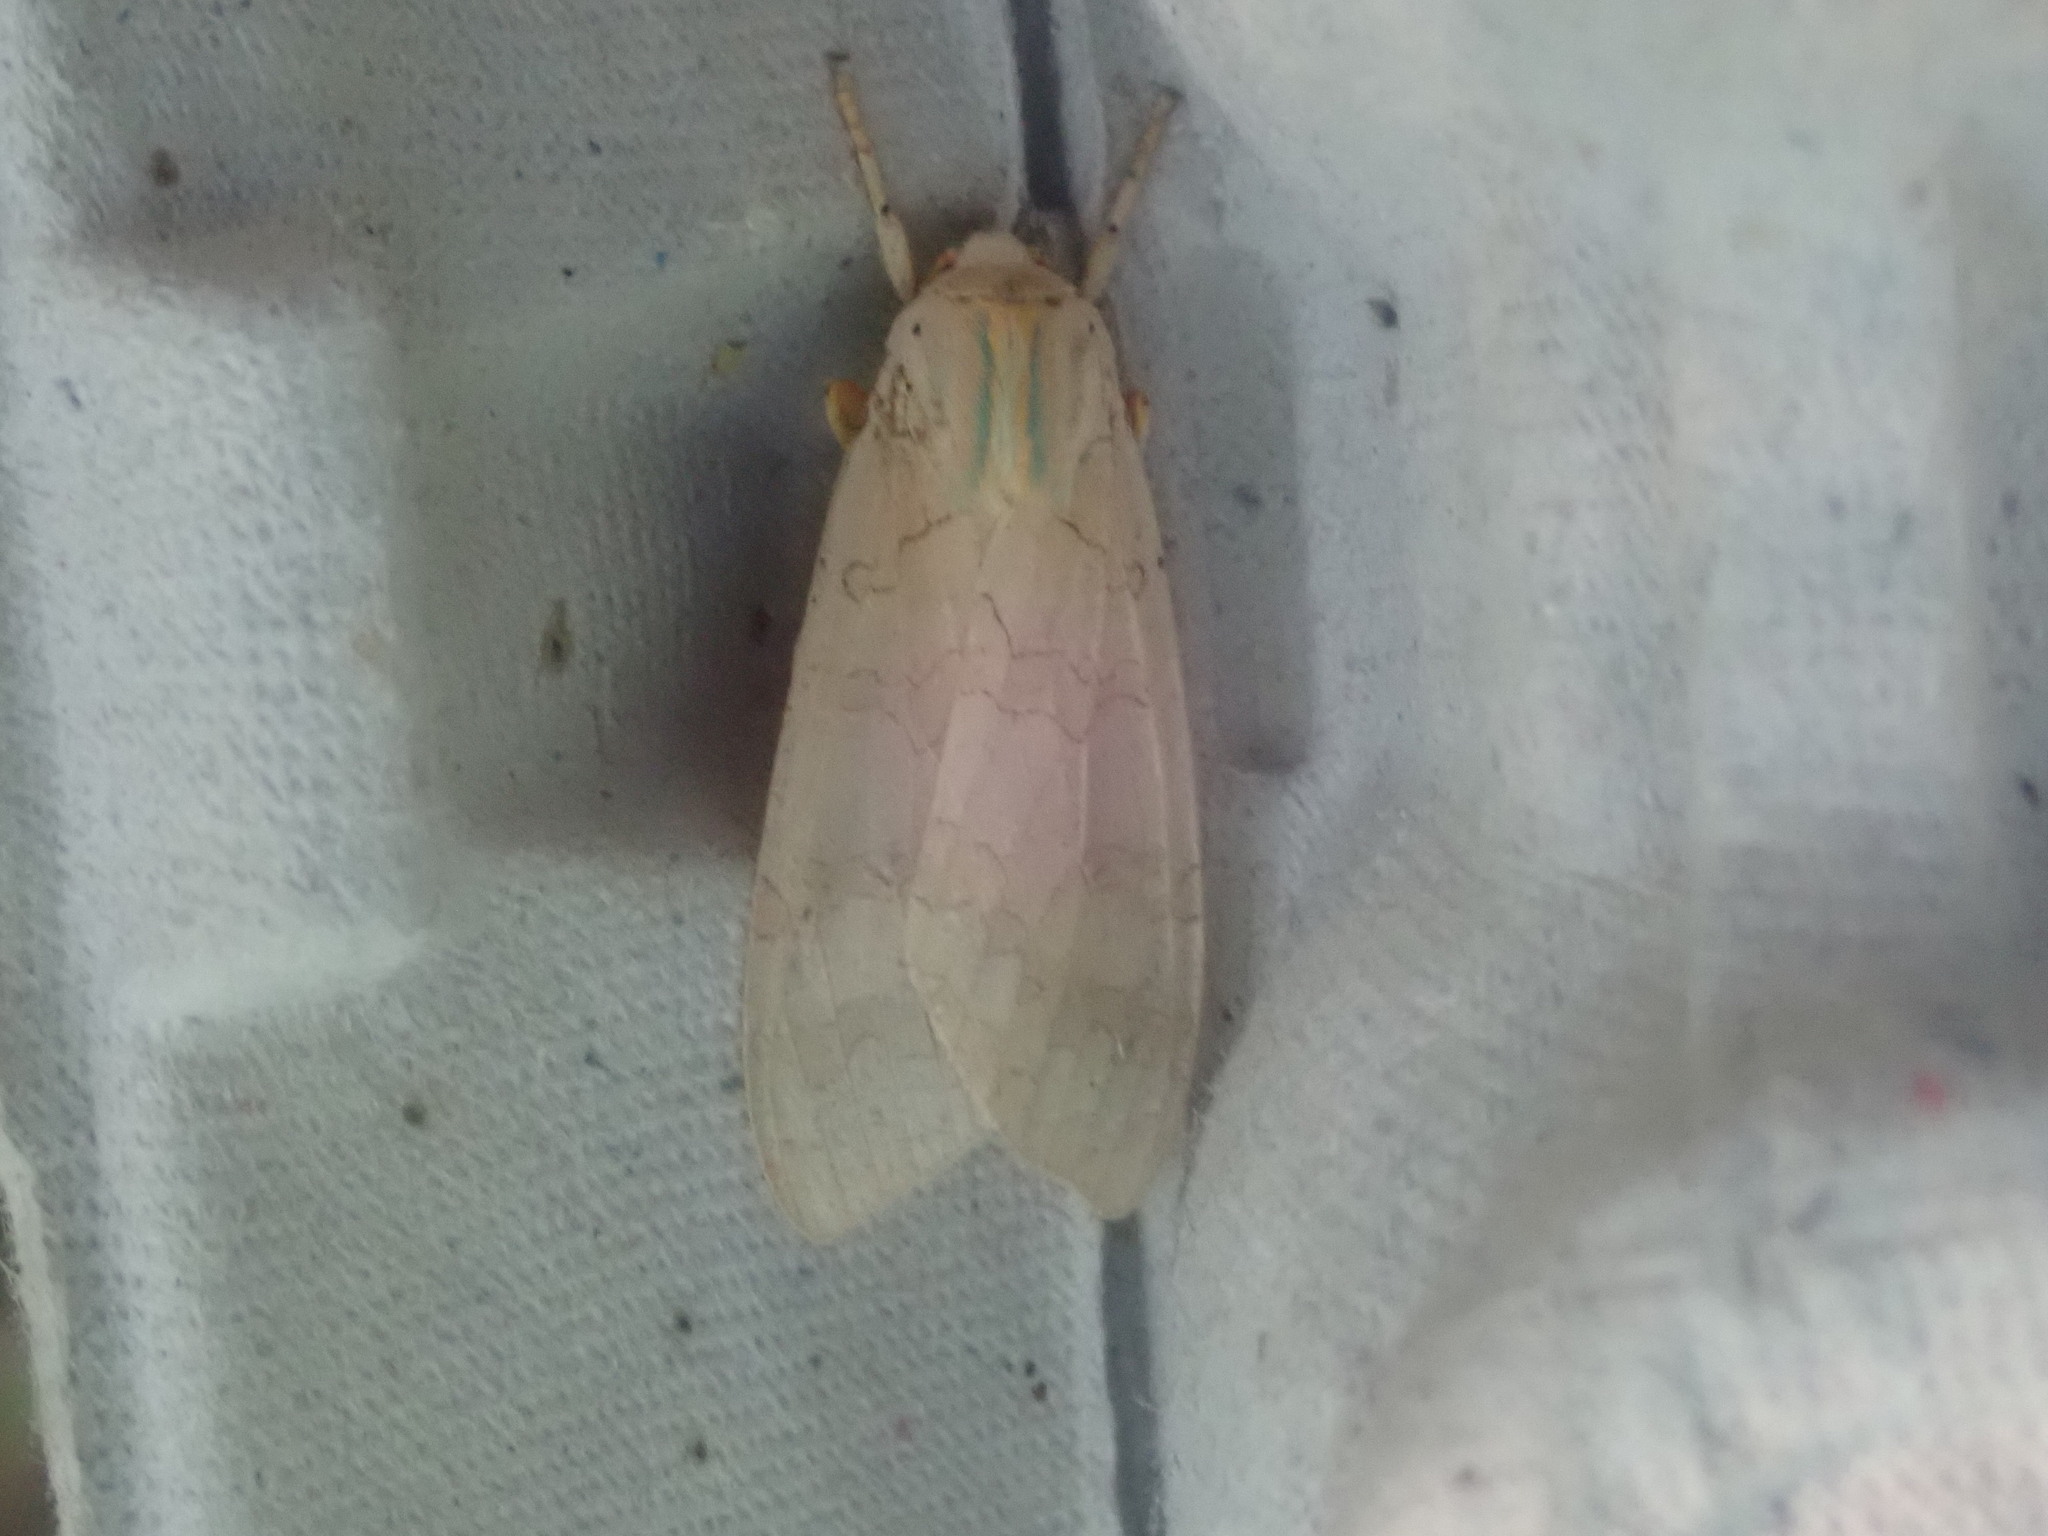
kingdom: Animalia
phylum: Arthropoda
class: Insecta
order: Lepidoptera
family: Erebidae
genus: Halysidota
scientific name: Halysidota
